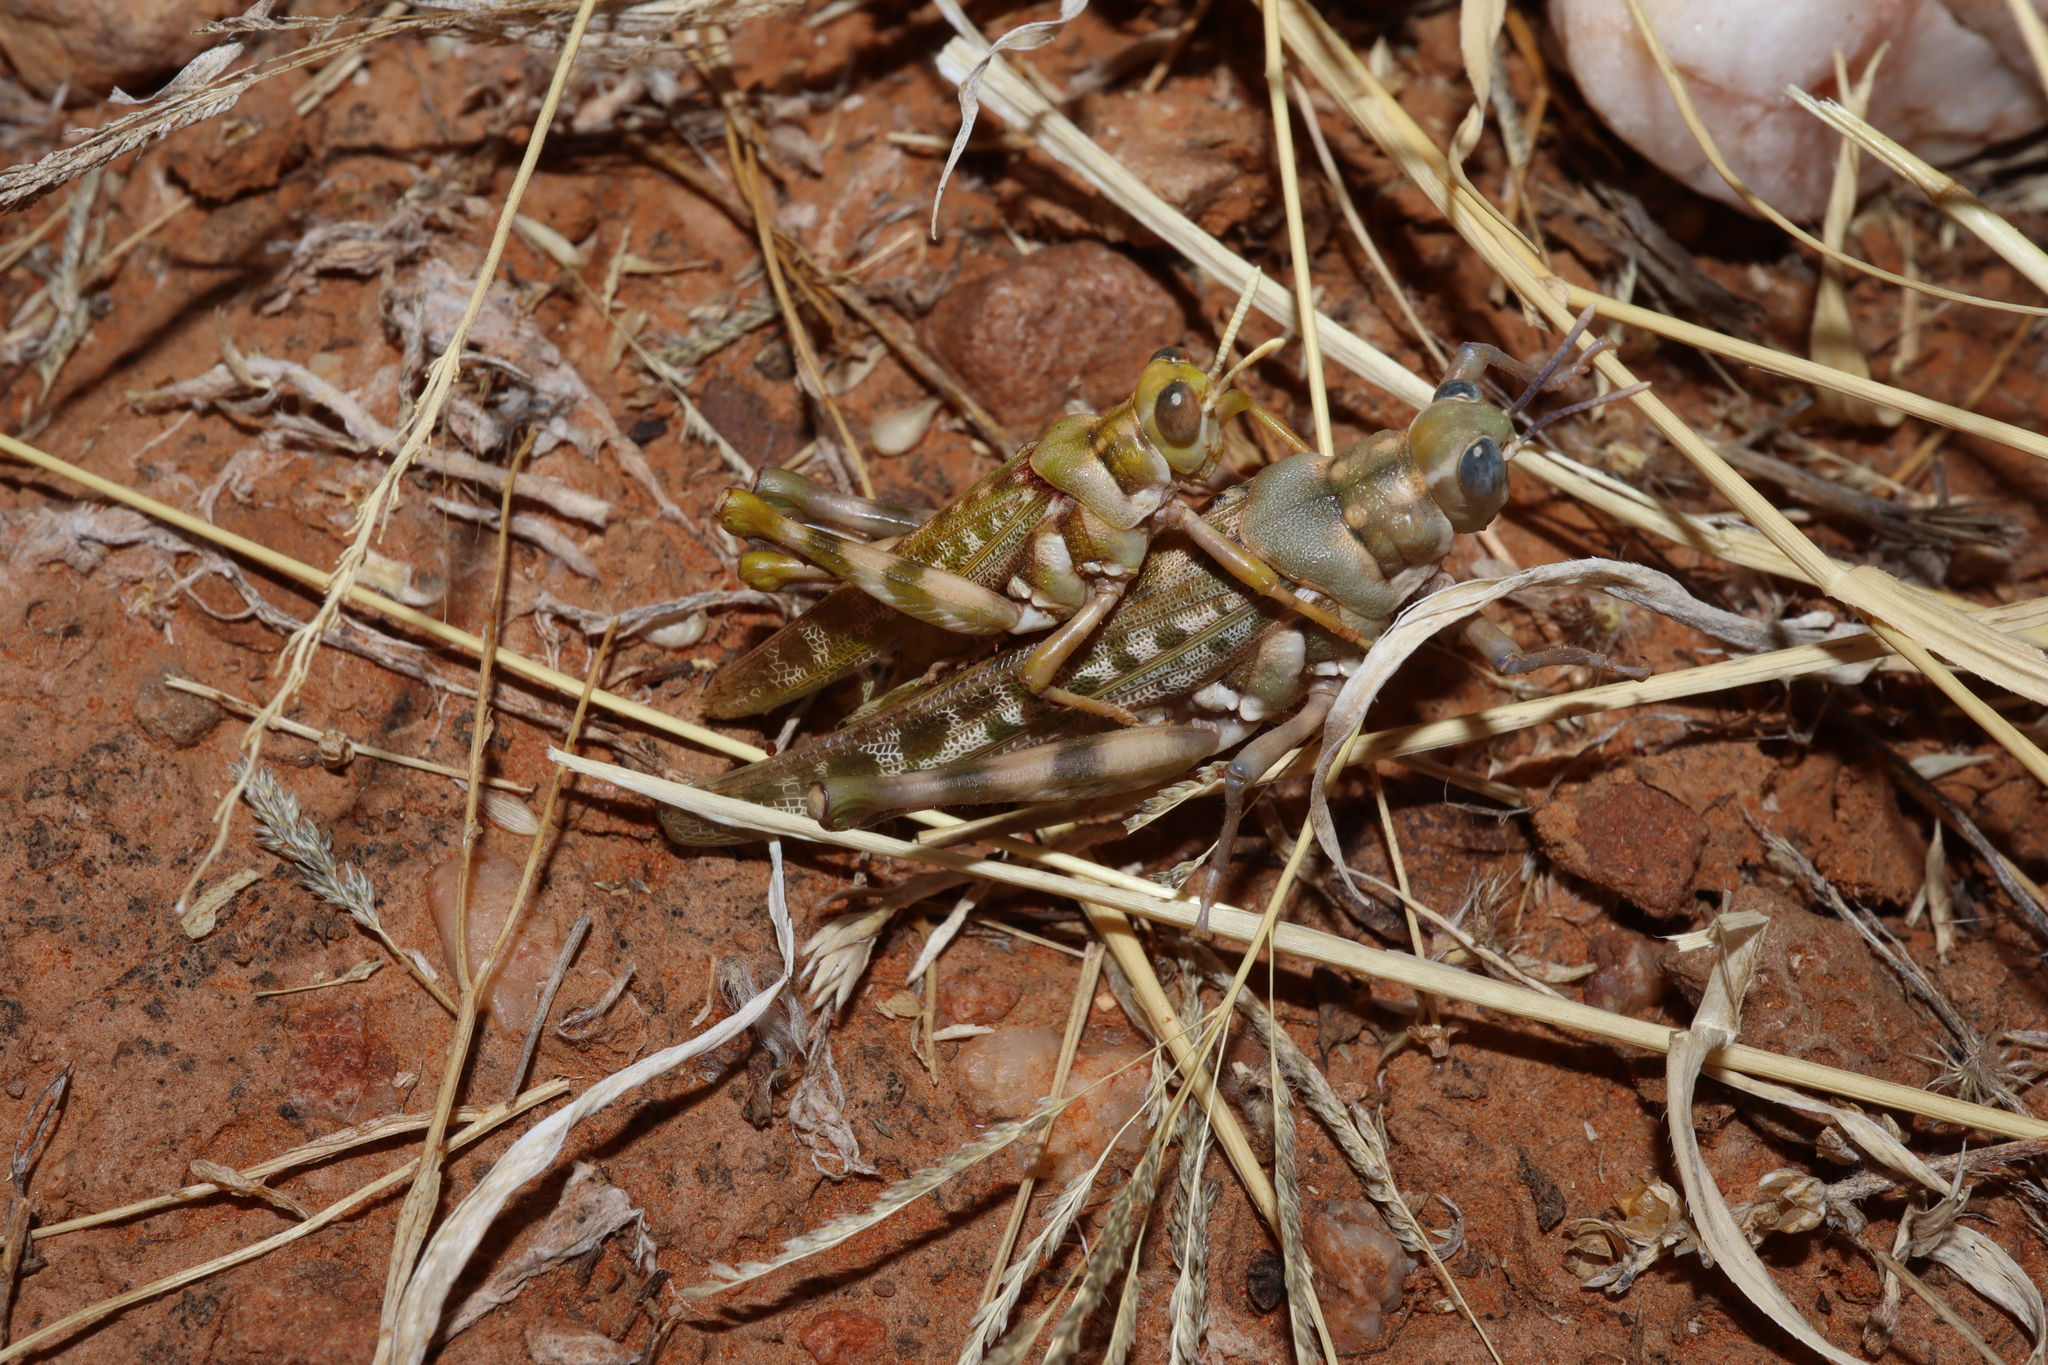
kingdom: Animalia
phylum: Arthropoda
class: Insecta
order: Orthoptera
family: Acrididae
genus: Scurra
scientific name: Scurra marmoralis
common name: Crepitating spurthroat
